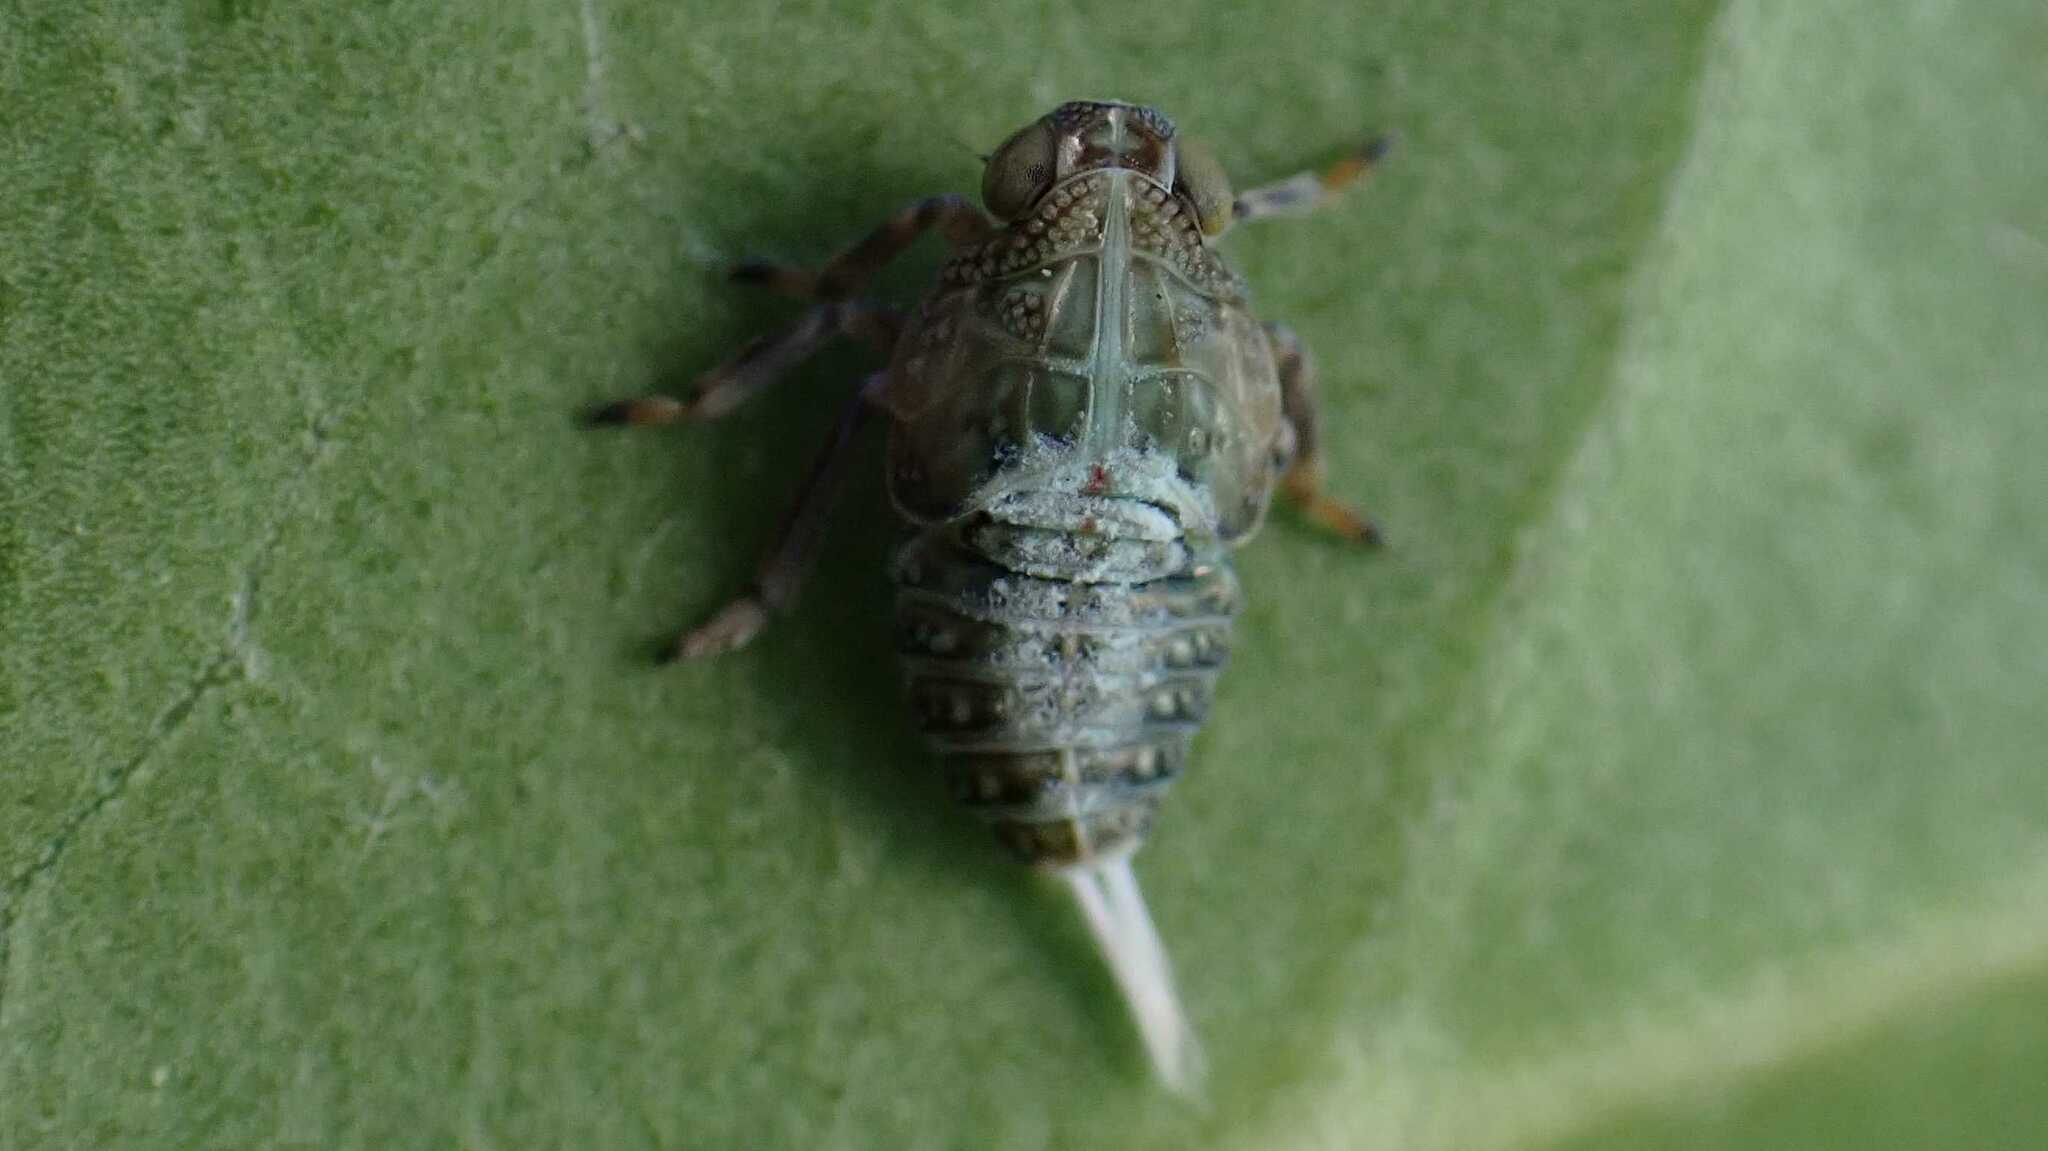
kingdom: Animalia
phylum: Arthropoda
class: Insecta
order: Hemiptera
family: Issidae
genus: Issus
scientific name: Issus coleoptratus
